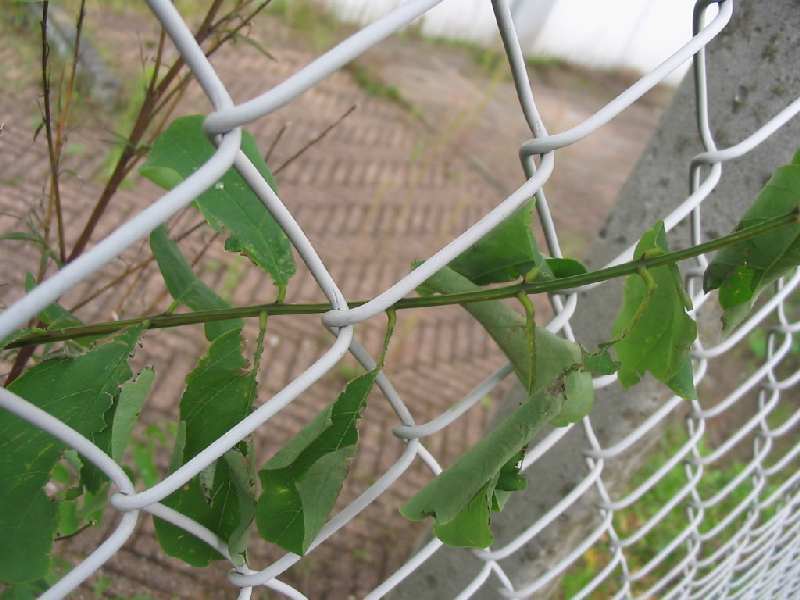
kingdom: Animalia
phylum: Arthropoda
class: Insecta
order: Diptera
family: Cecidomyiidae
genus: Obolodiplosis
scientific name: Obolodiplosis robiniae
